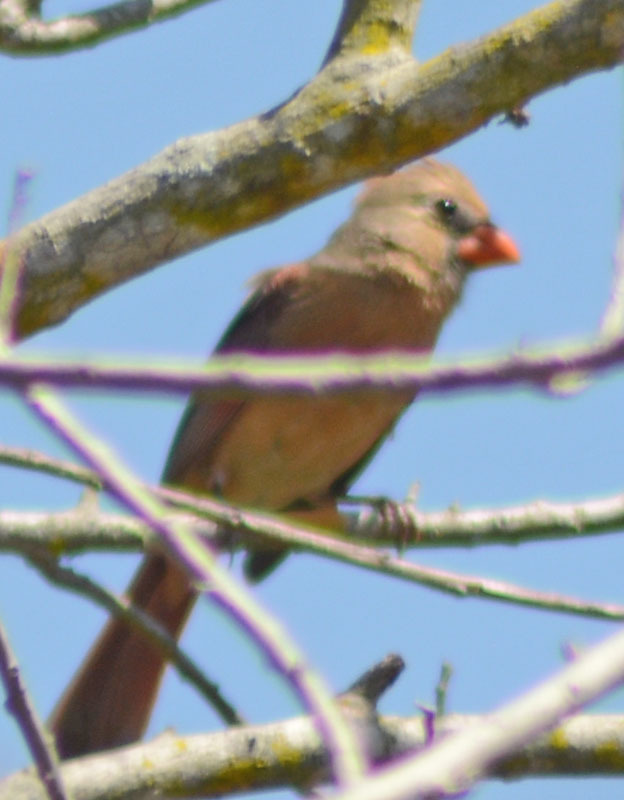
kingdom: Animalia
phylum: Chordata
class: Aves
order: Passeriformes
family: Cardinalidae
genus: Cardinalis
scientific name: Cardinalis cardinalis
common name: Northern cardinal
